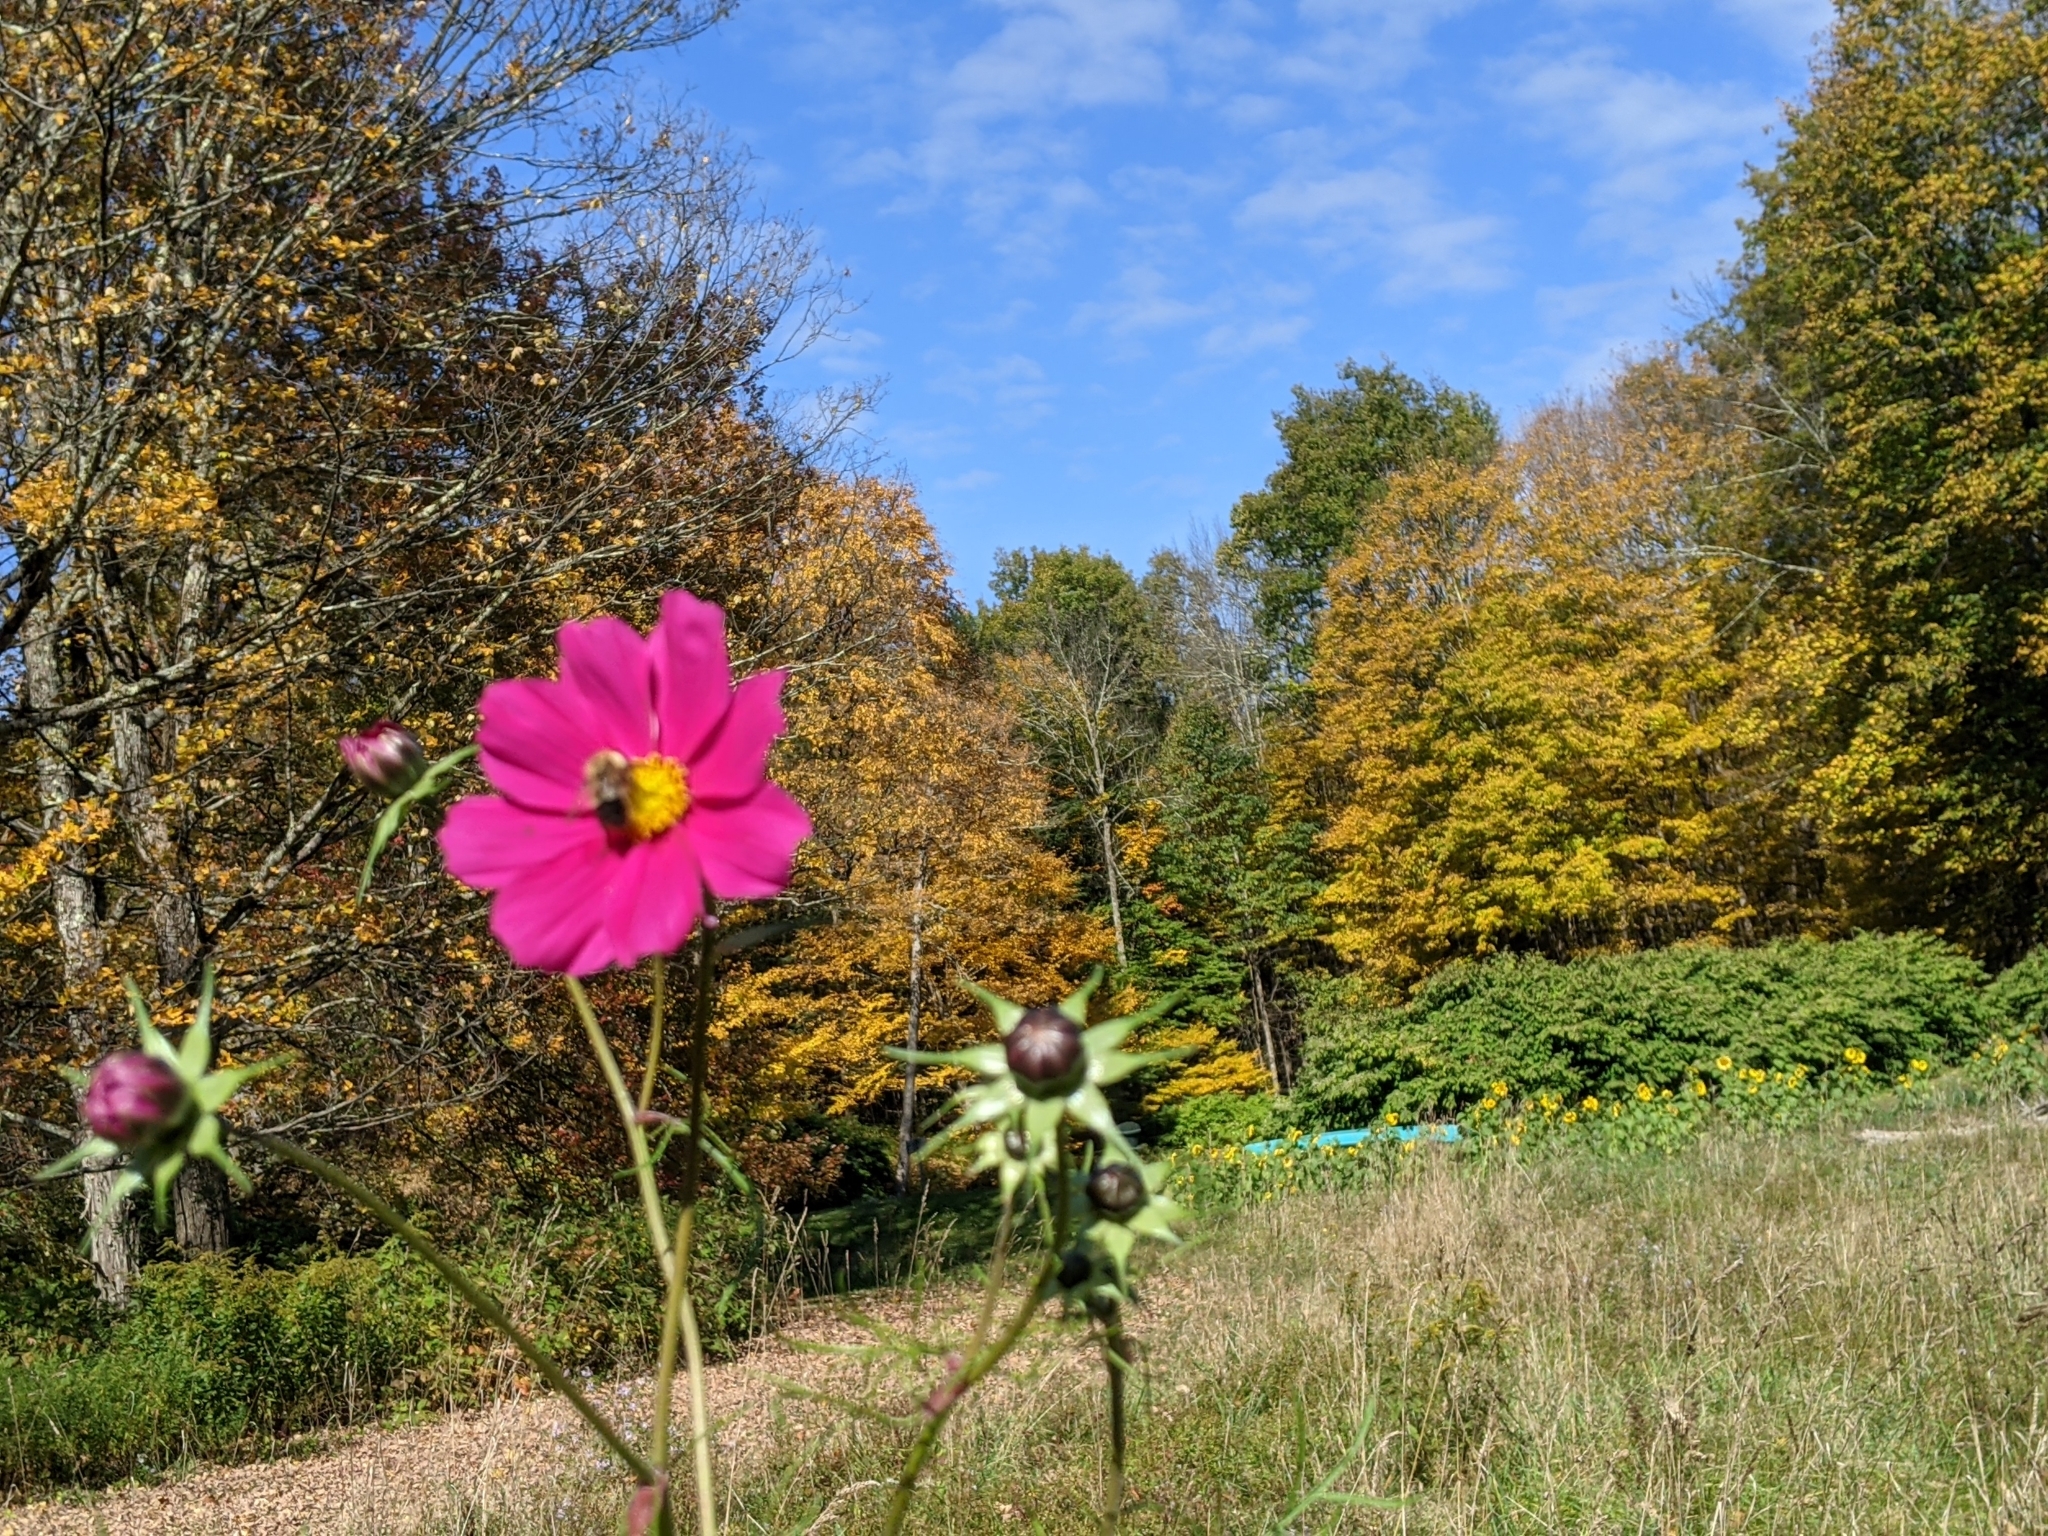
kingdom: Plantae
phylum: Tracheophyta
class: Magnoliopsida
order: Asterales
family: Asteraceae
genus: Cosmos
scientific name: Cosmos bipinnatus
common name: Garden cosmos
